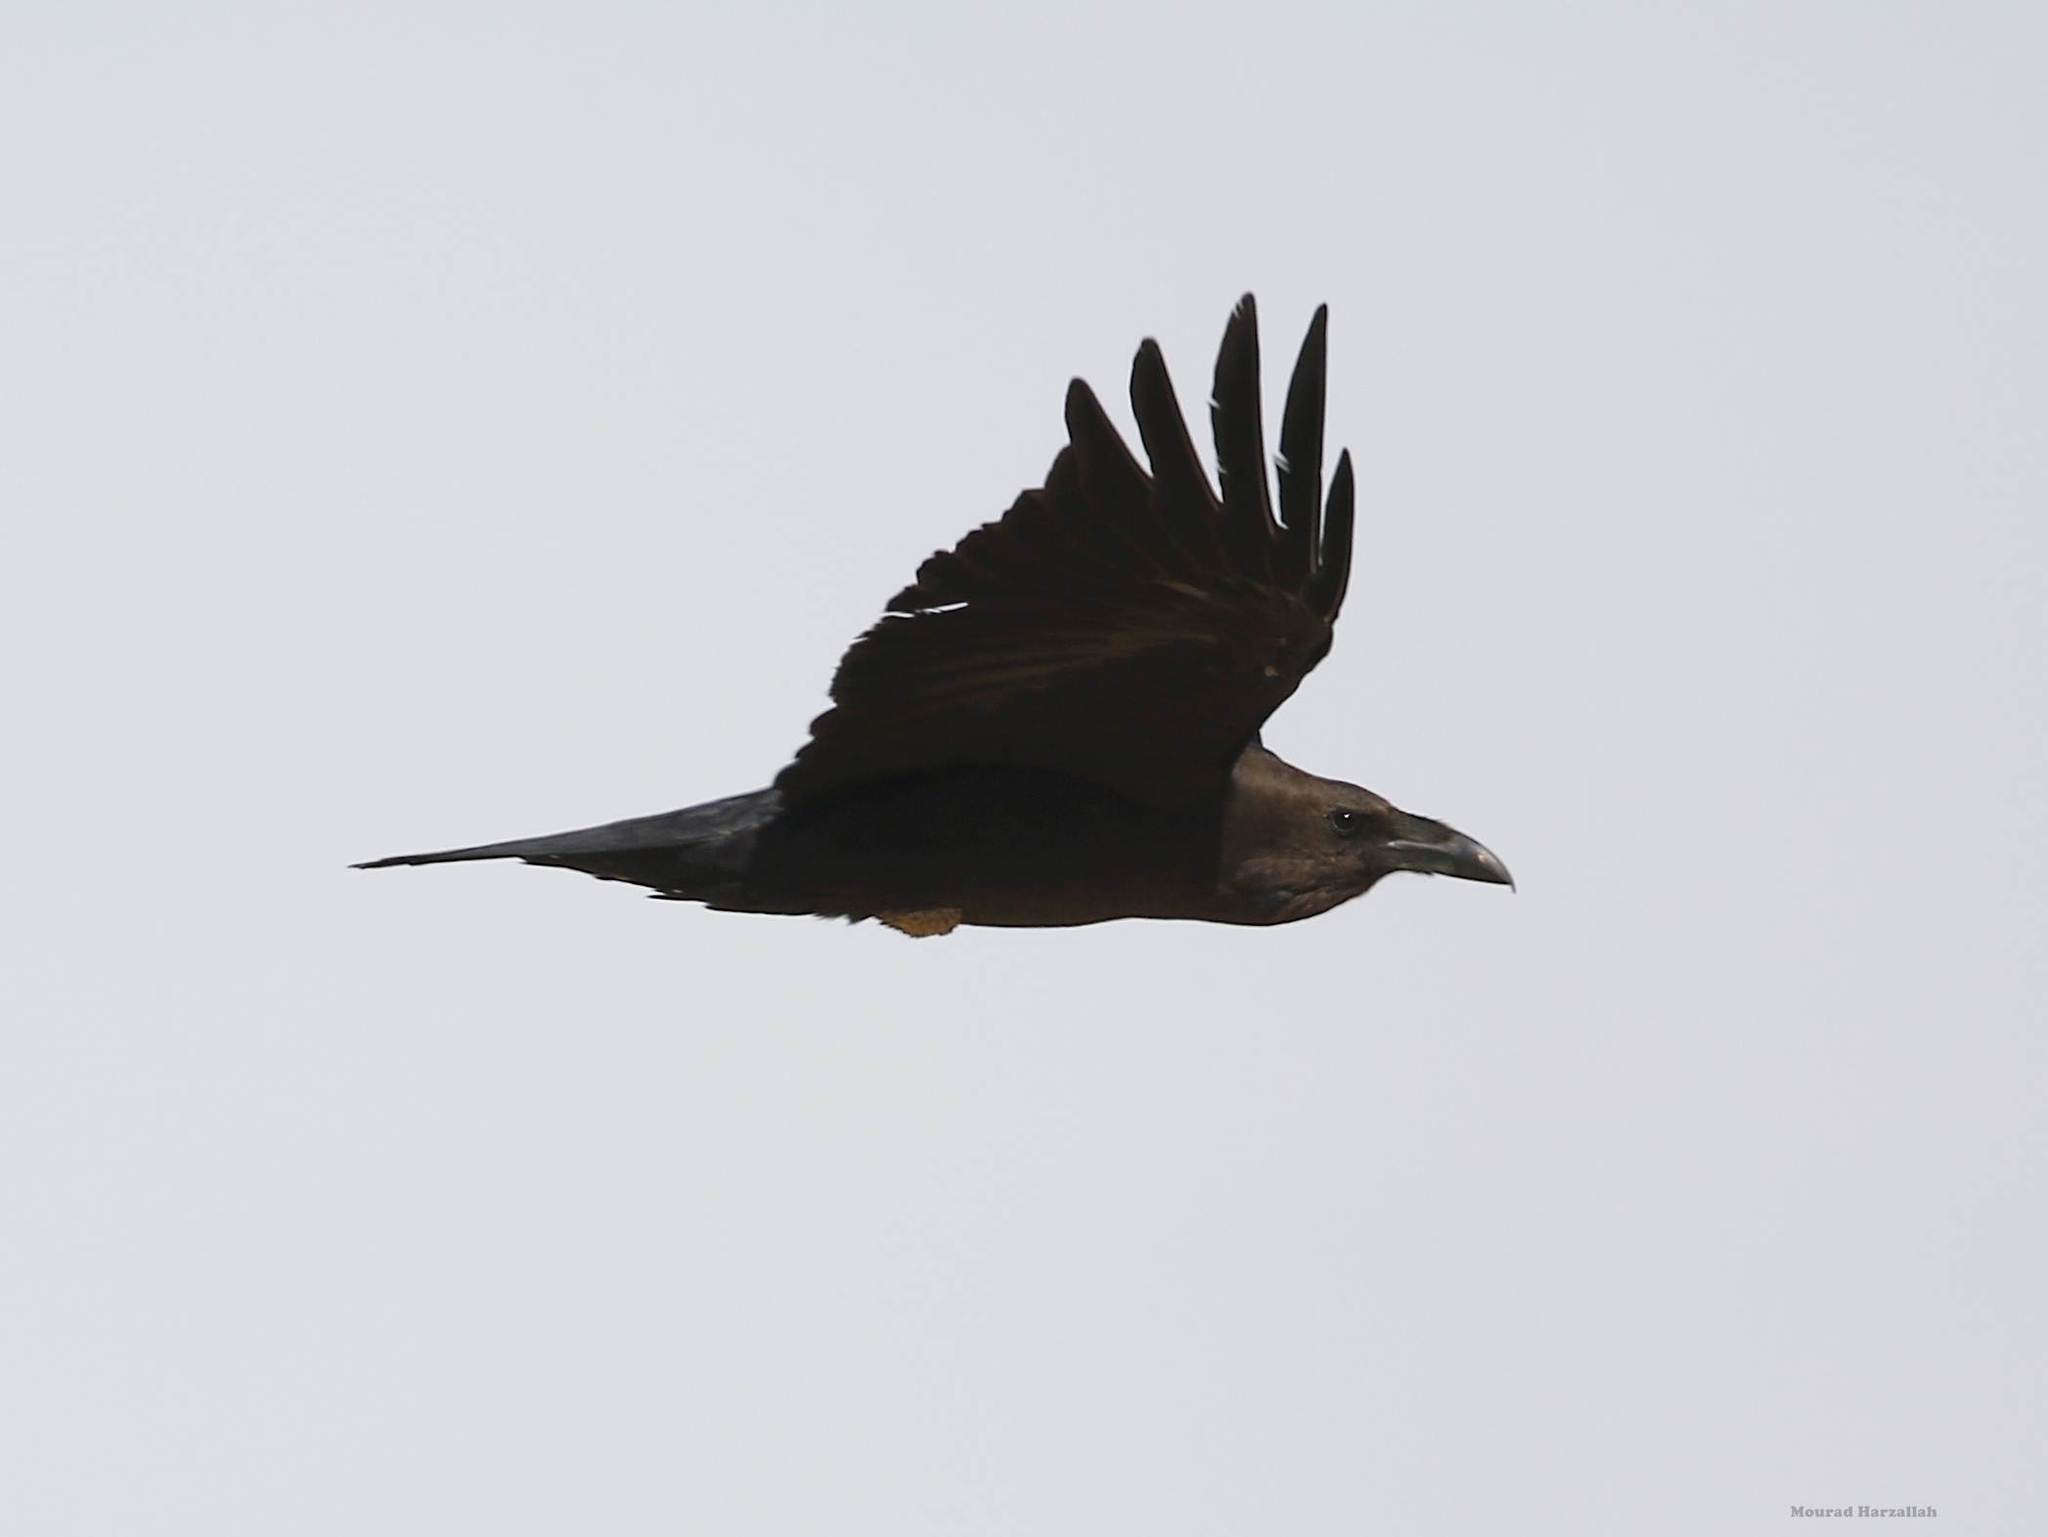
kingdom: Animalia
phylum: Chordata
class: Aves
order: Passeriformes
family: Corvidae
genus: Corvus
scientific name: Corvus ruficollis
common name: Brown-necked raven
